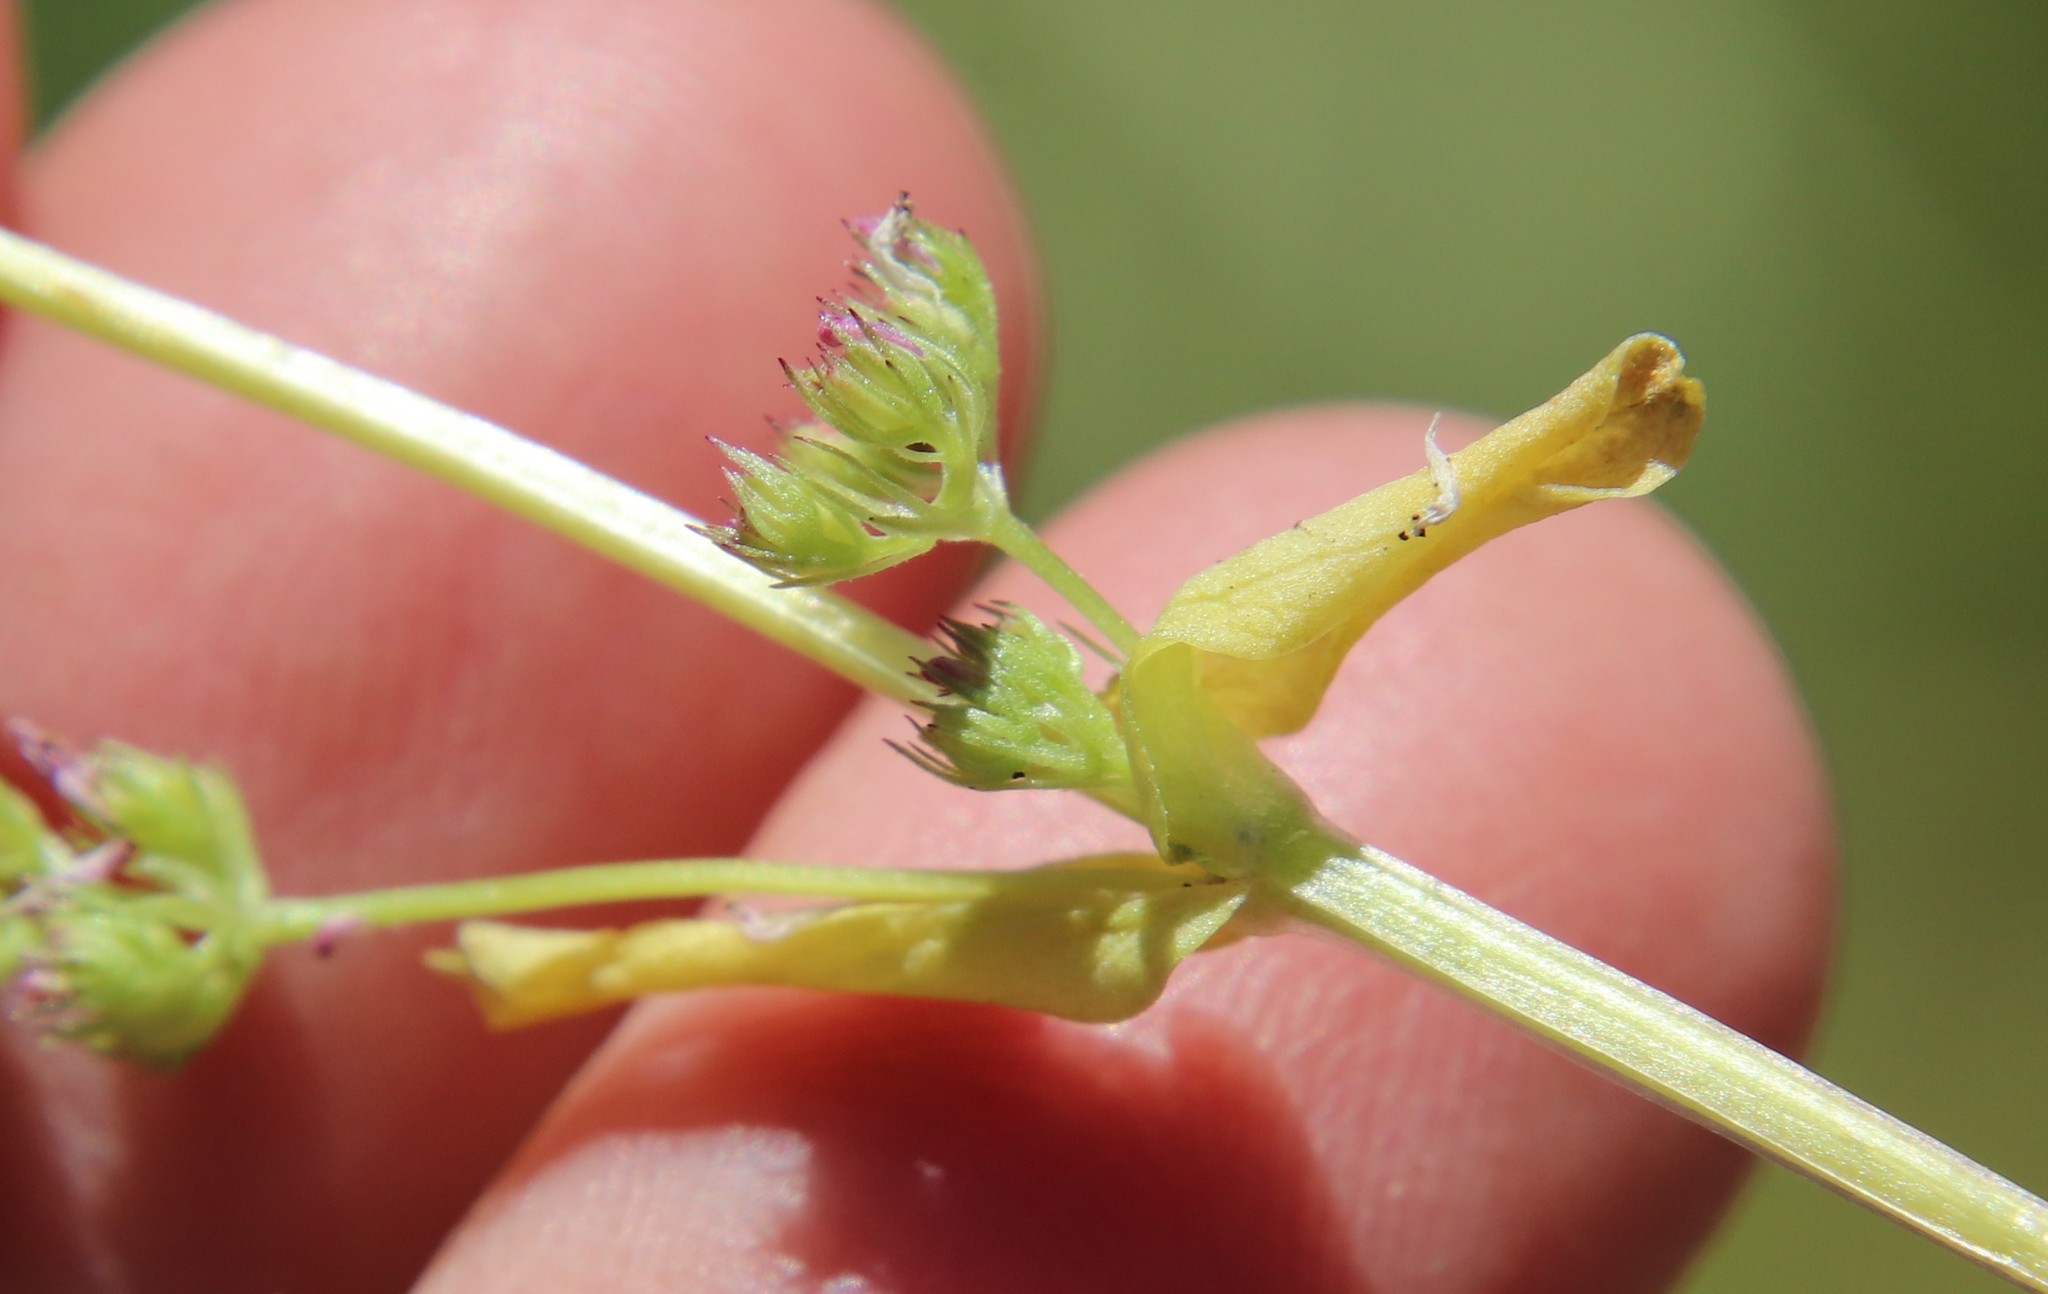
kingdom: Plantae
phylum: Tracheophyta
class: Magnoliopsida
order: Dipsacales
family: Caprifoliaceae
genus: Plectritis
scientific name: Plectritis brachystemon
